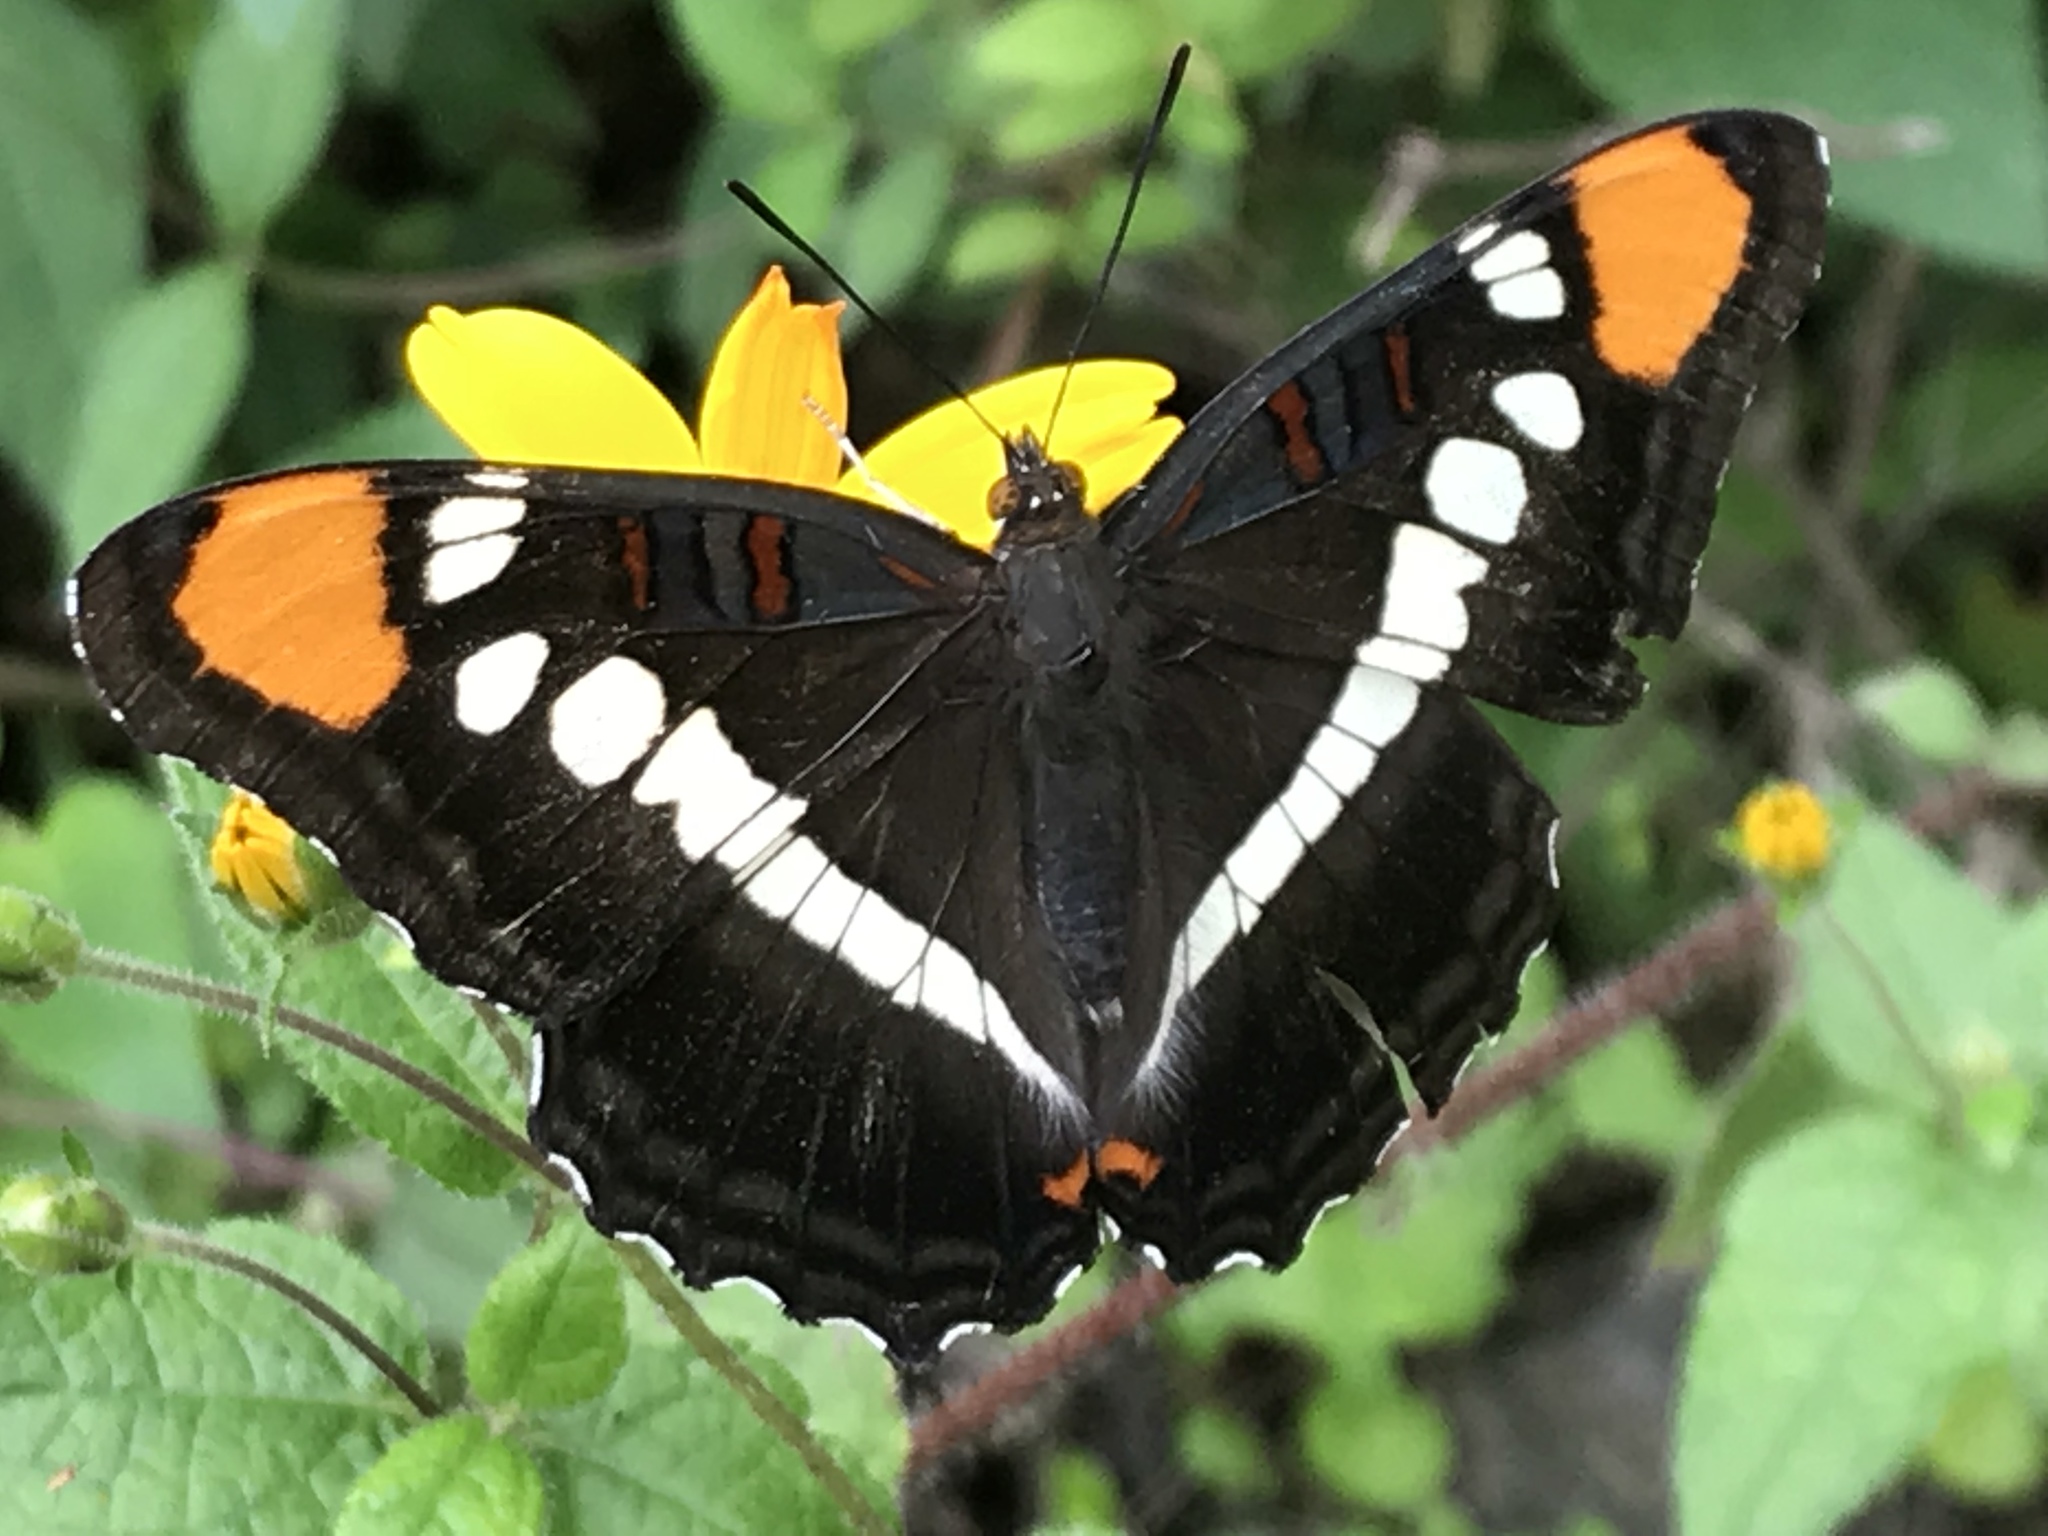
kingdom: Animalia
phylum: Arthropoda
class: Insecta
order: Lepidoptera
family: Nymphalidae
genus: Limenitis
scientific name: Limenitis bredowii
